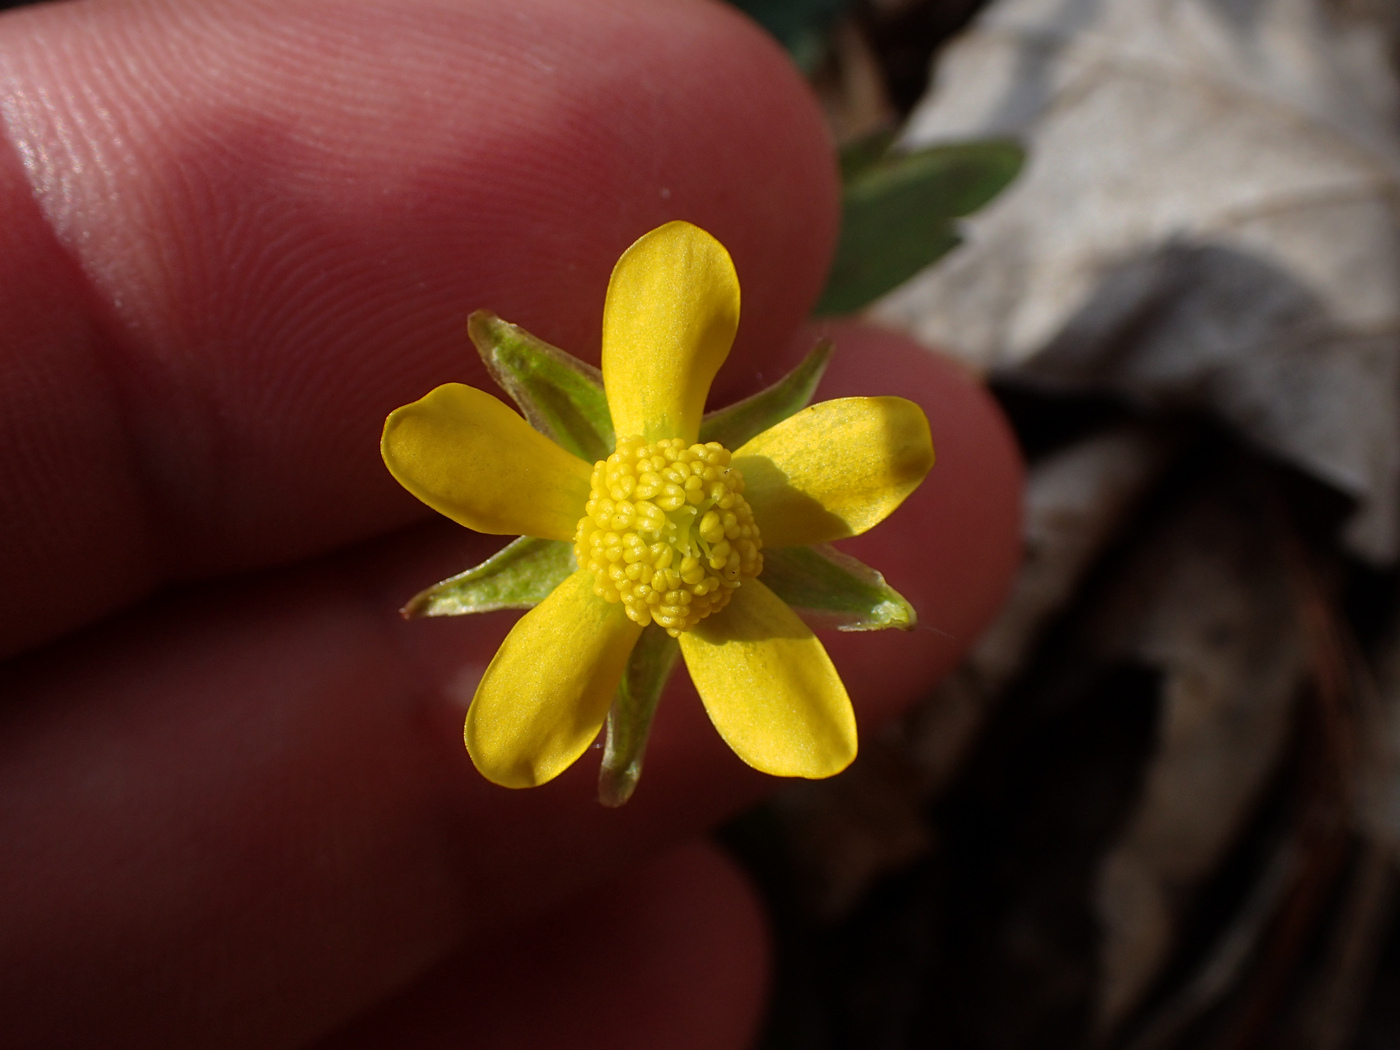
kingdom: Plantae
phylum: Tracheophyta
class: Magnoliopsida
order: Ranunculales
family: Ranunculaceae
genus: Ranunculus
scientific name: Ranunculus hispidus
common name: Bristly buttercup
